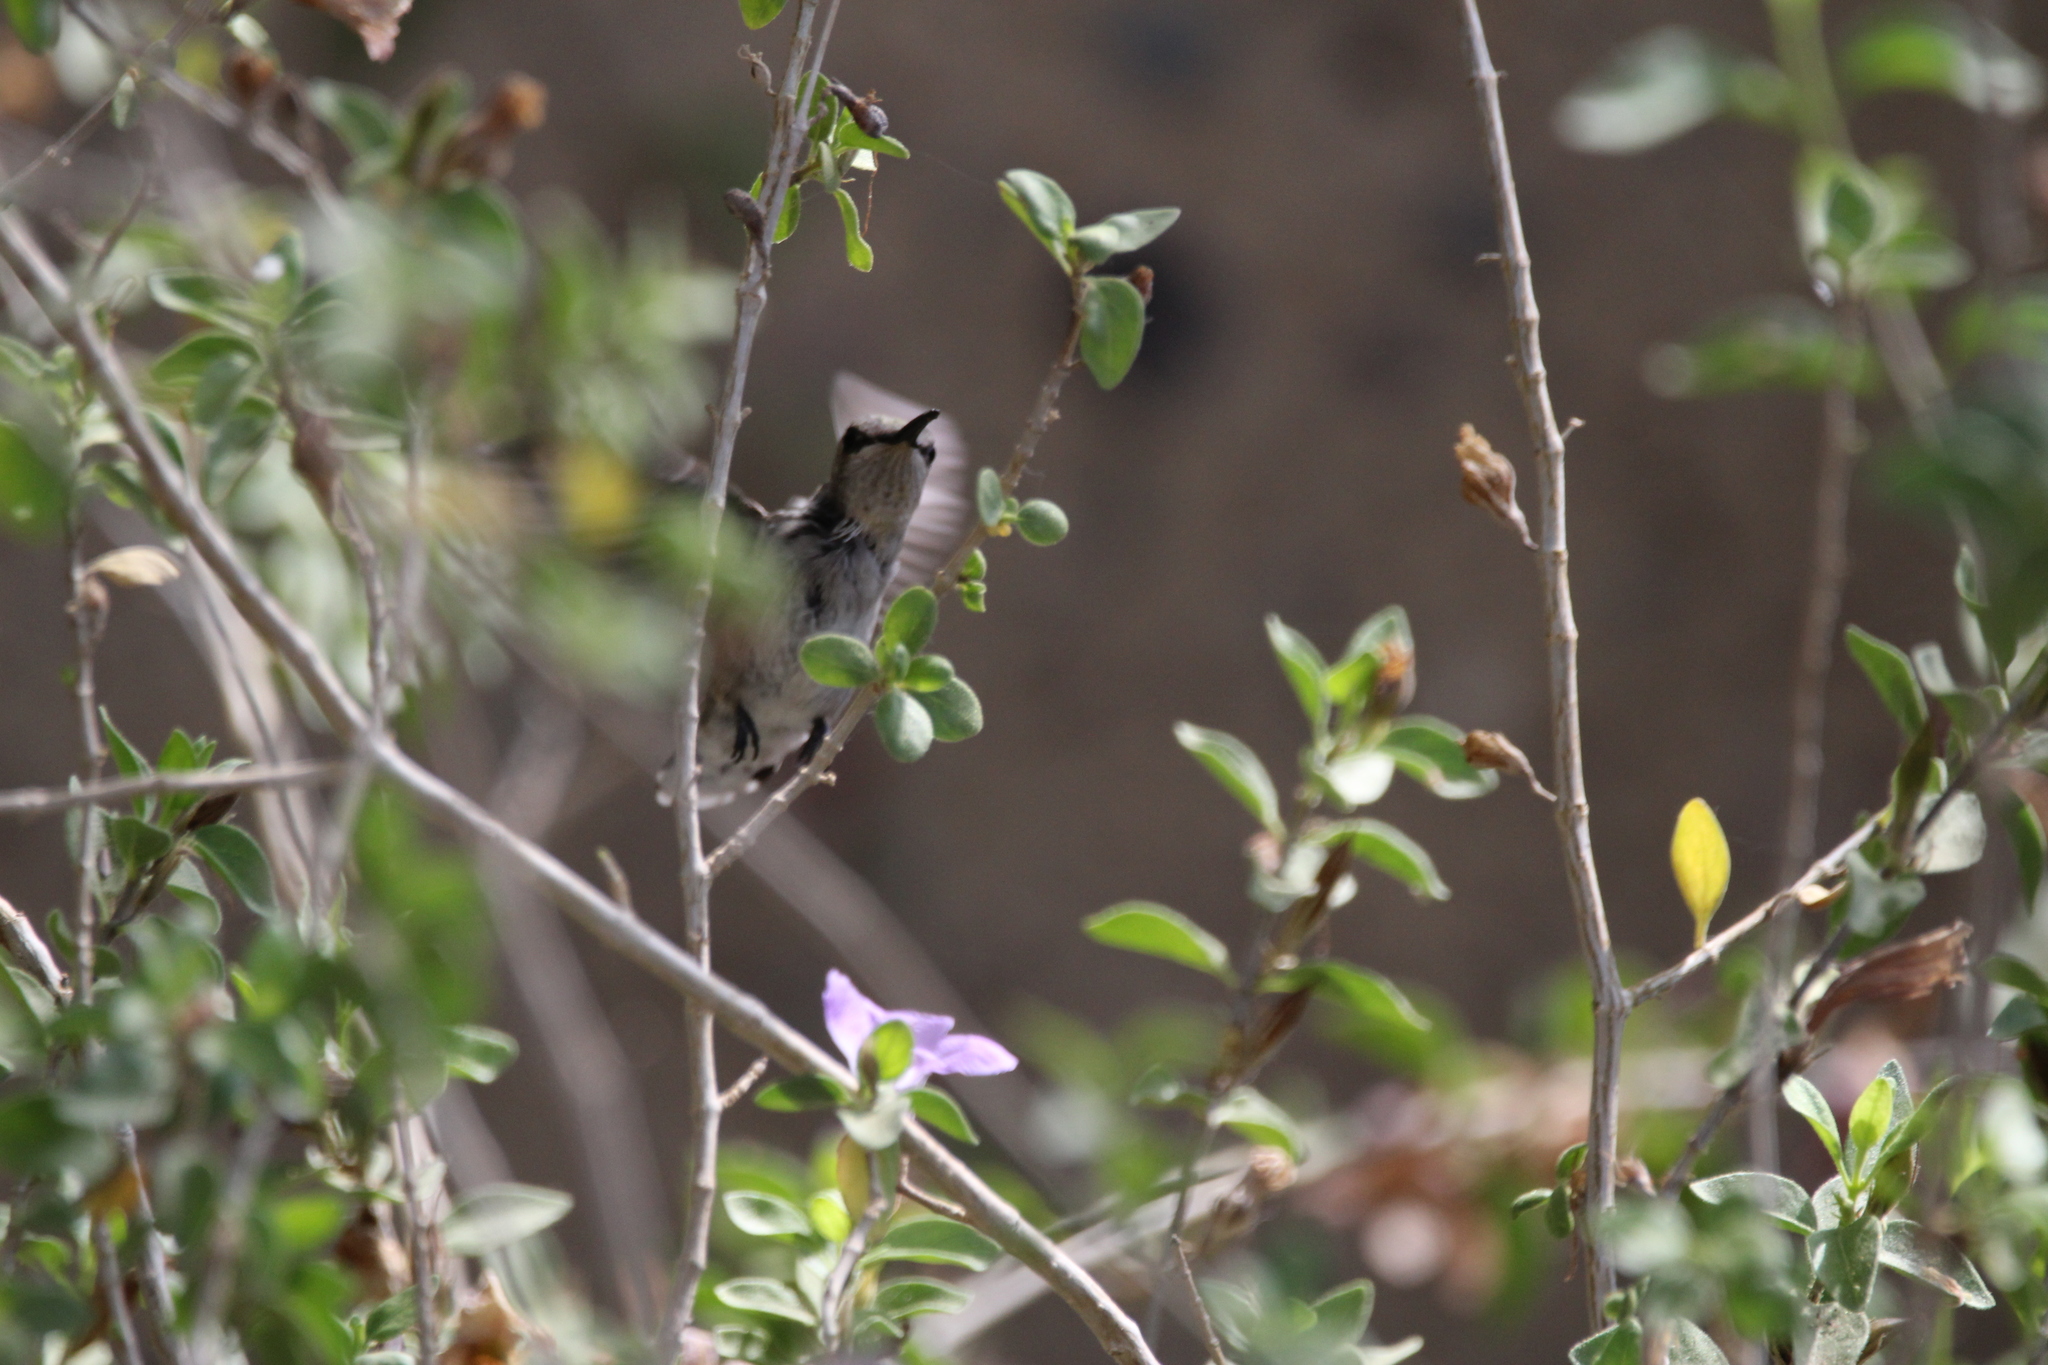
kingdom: Animalia
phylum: Chordata
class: Aves
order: Apodiformes
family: Trochilidae
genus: Calypte
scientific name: Calypte costae
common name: Costa's hummingbird
